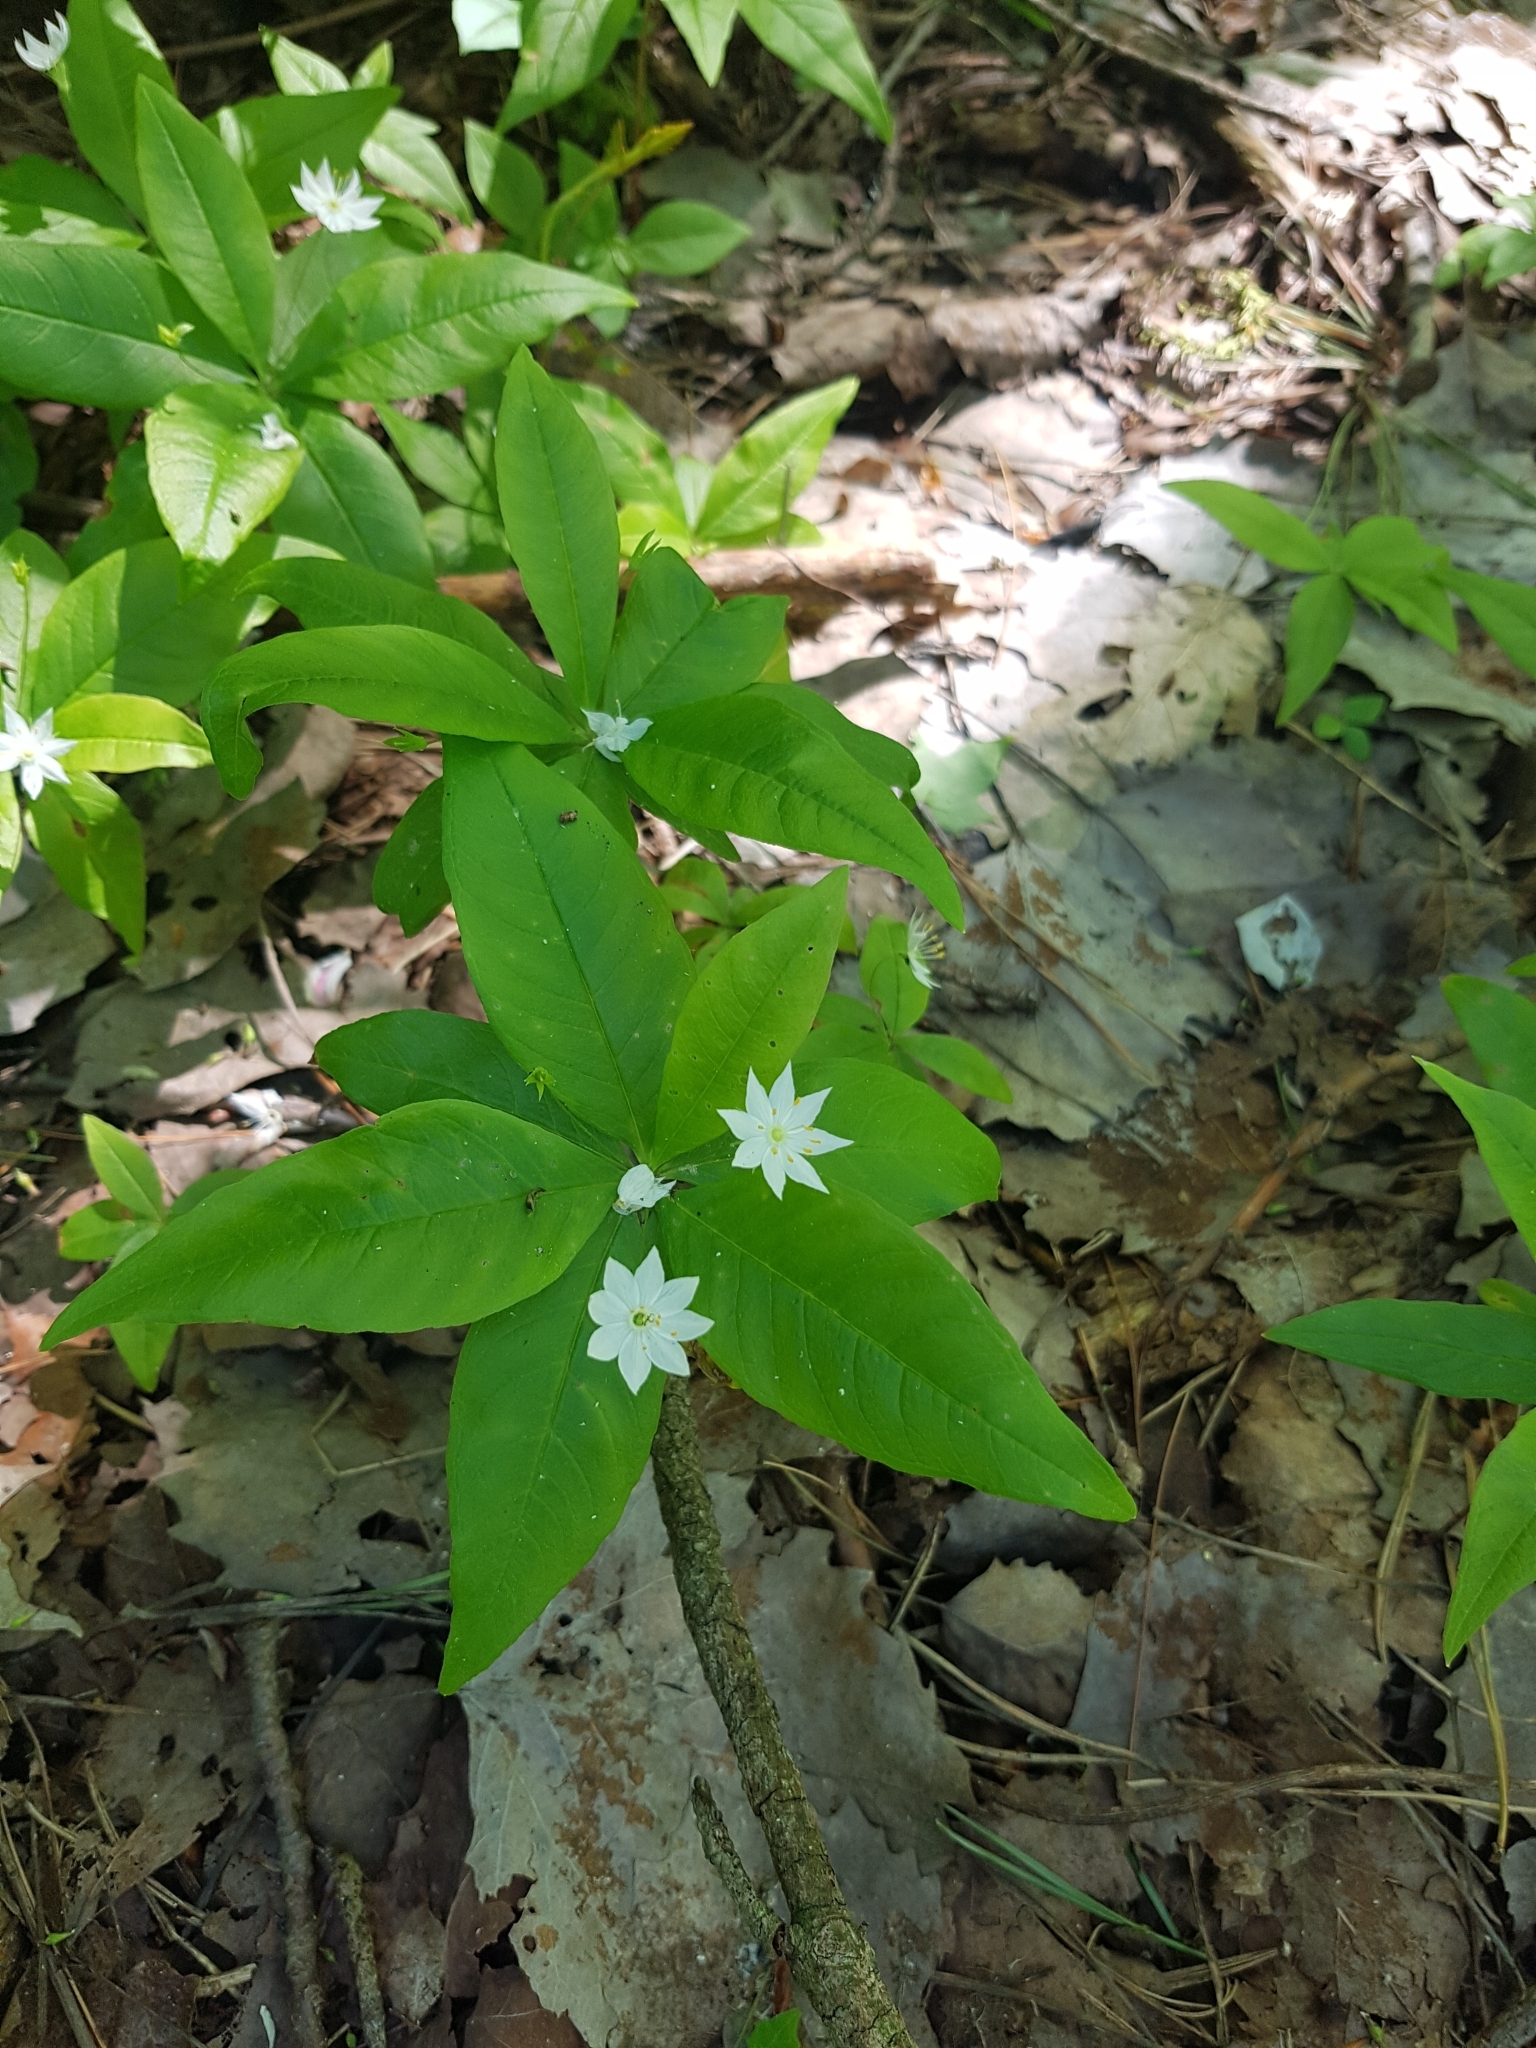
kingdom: Plantae
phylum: Tracheophyta
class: Magnoliopsida
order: Ericales
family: Primulaceae
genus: Lysimachia
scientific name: Lysimachia borealis
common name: American starflower
